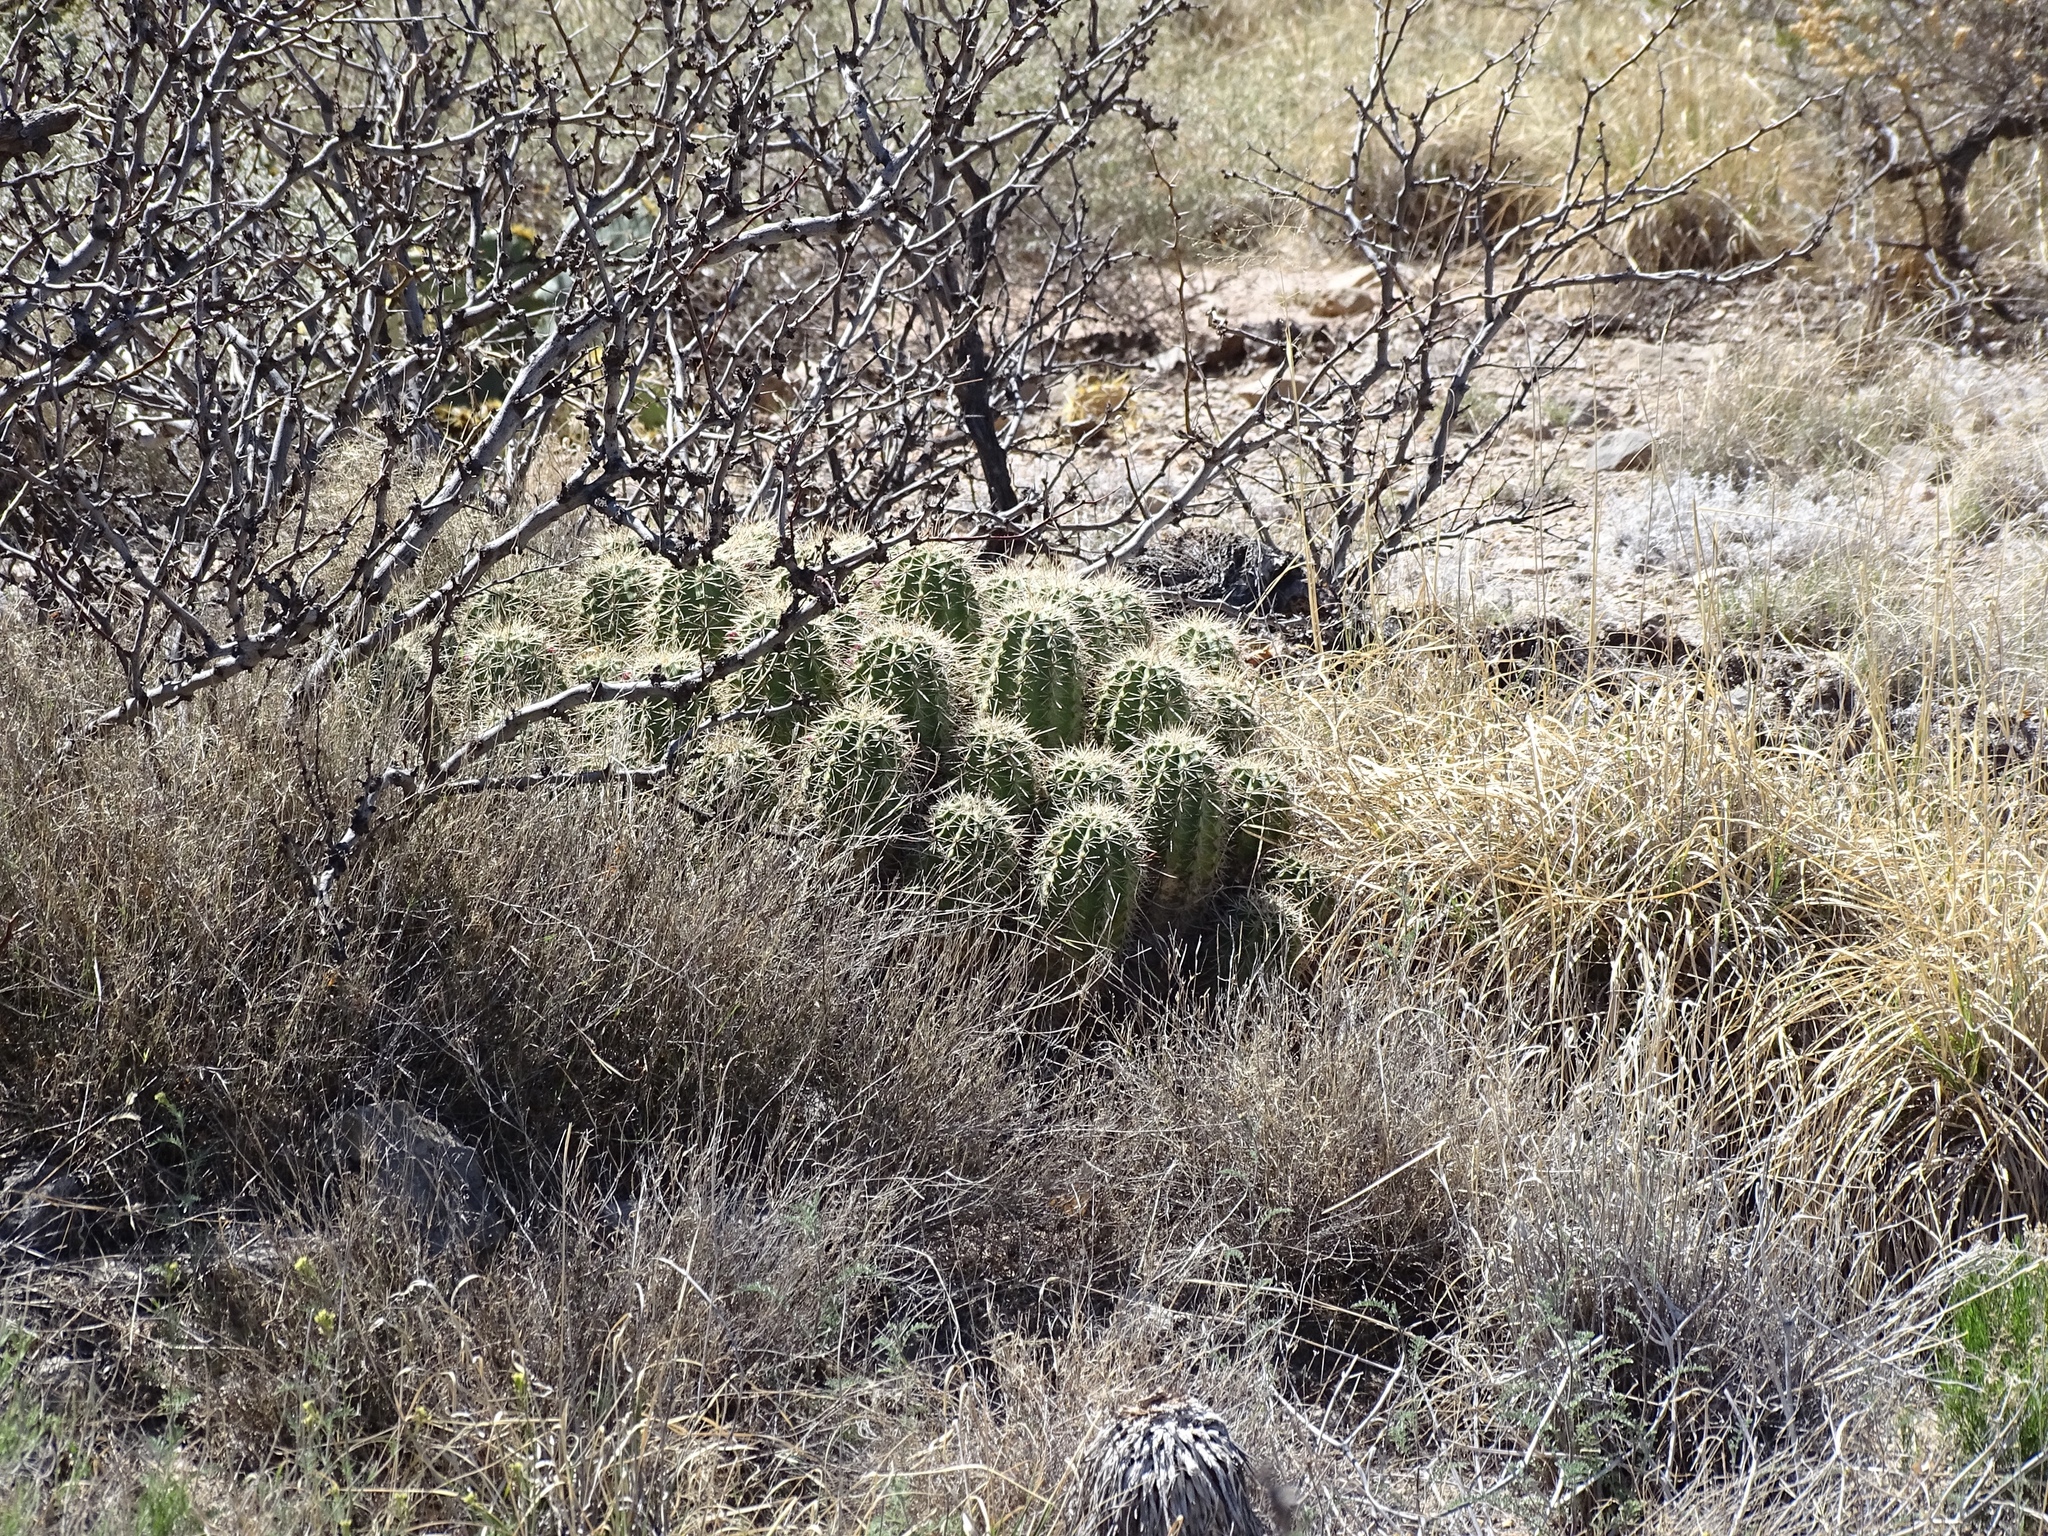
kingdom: Plantae
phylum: Tracheophyta
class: Magnoliopsida
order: Caryophyllales
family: Cactaceae
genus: Echinocereus
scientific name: Echinocereus coccineus
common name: Scarlet hedgehog cactus
